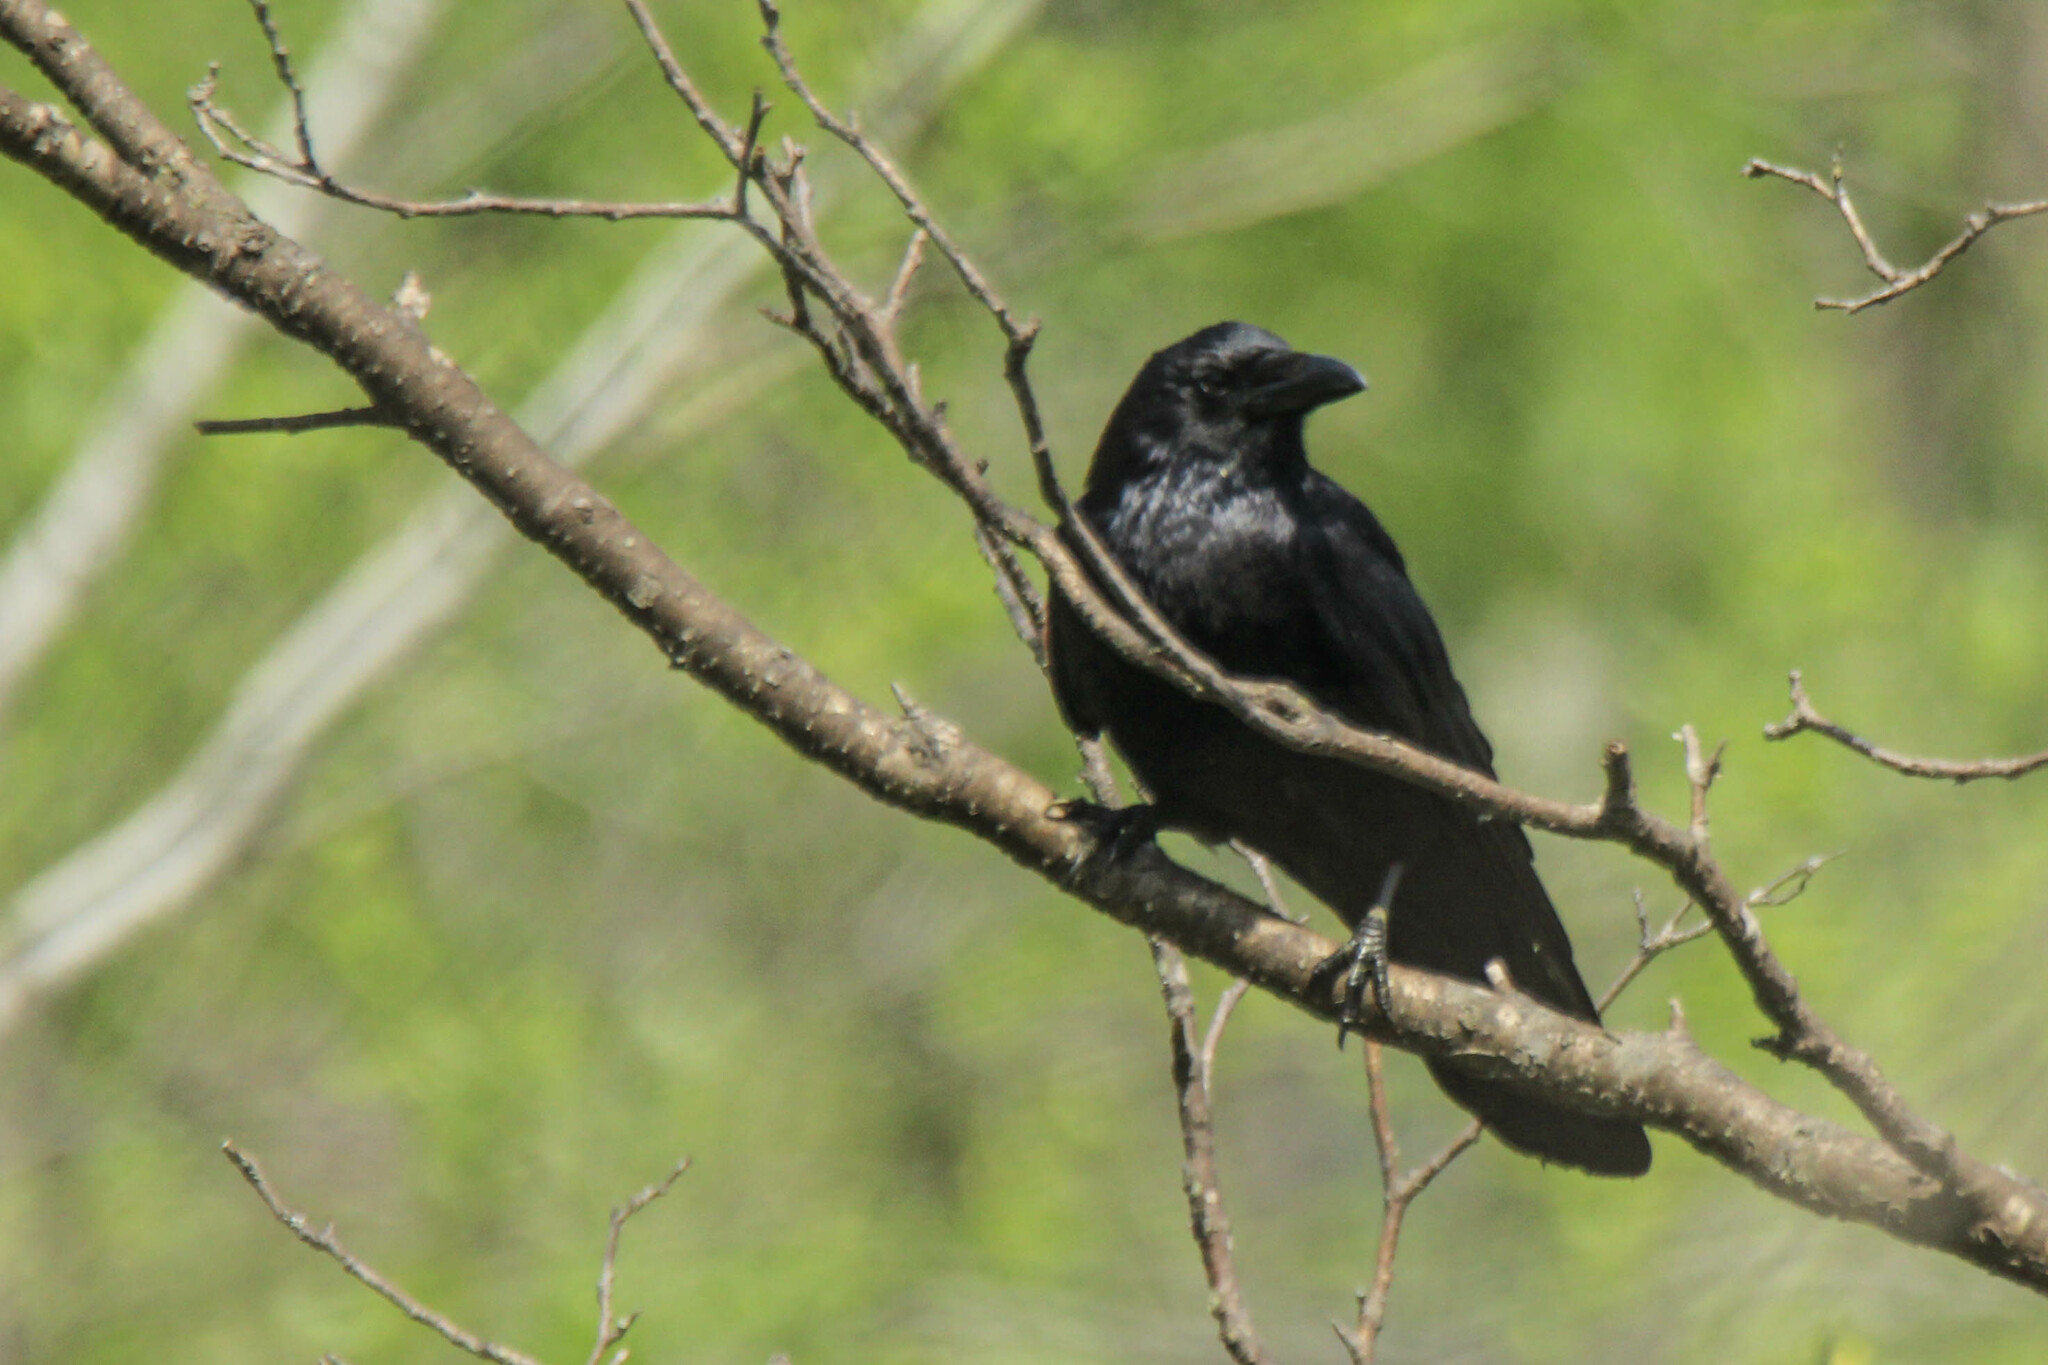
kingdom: Animalia
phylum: Chordata
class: Aves
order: Passeriformes
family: Corvidae
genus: Corvus
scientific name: Corvus corone
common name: Carrion crow
